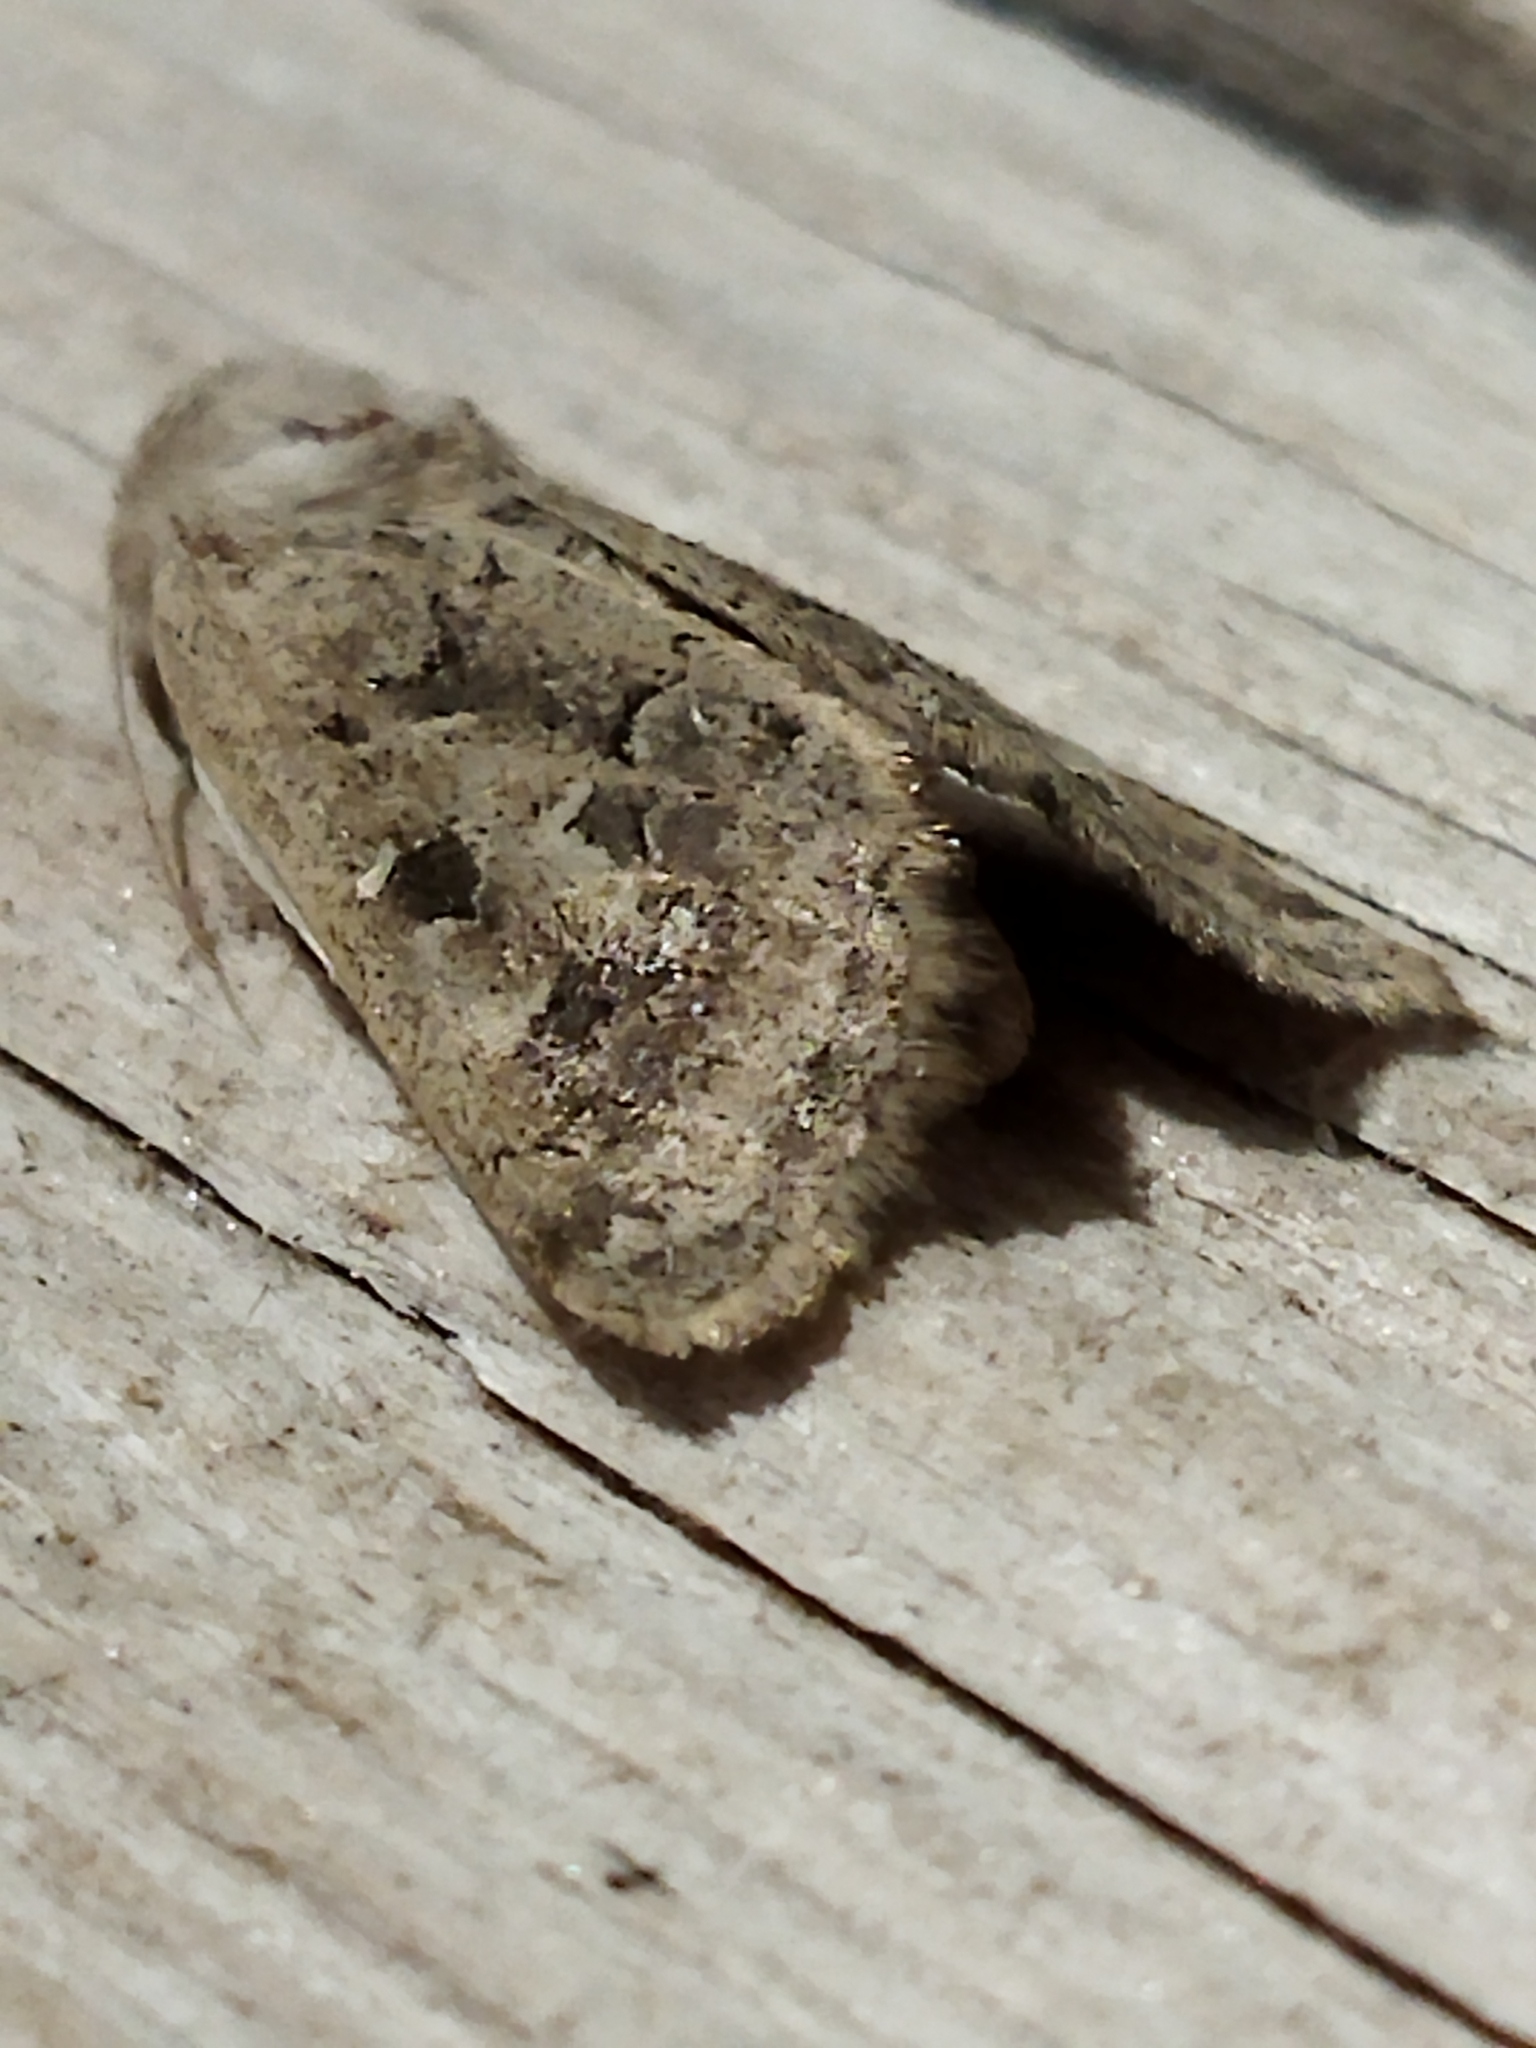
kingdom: Animalia
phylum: Arthropoda
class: Insecta
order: Lepidoptera
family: Noctuidae
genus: Episema
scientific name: Episema lederi
